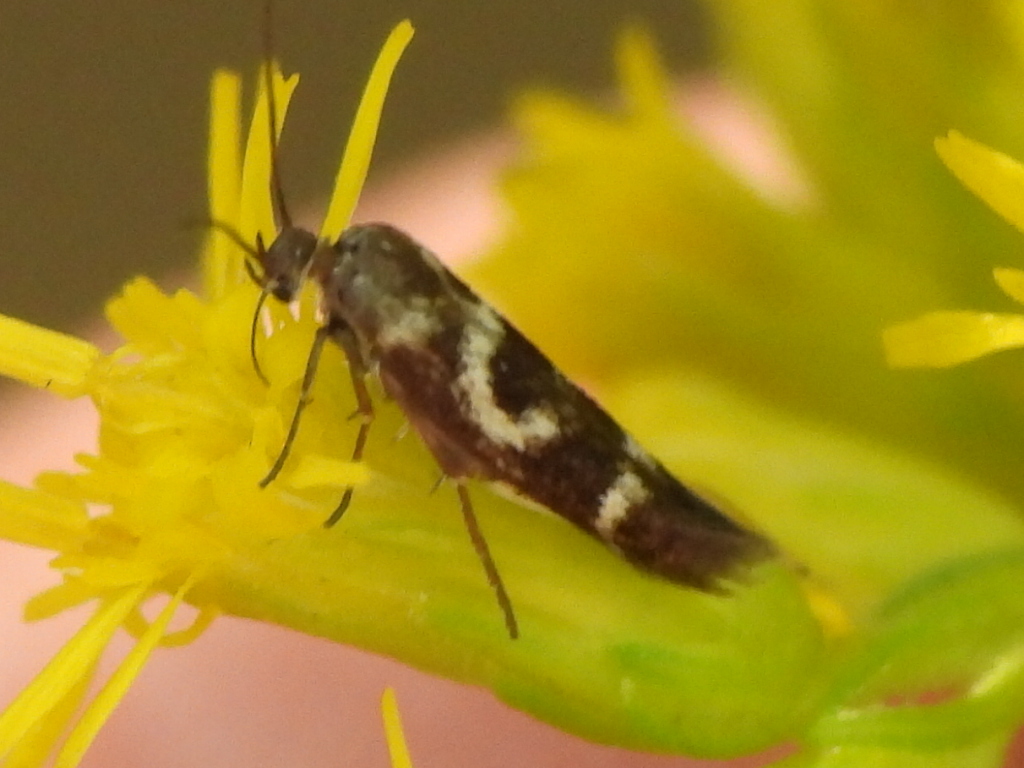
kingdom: Animalia
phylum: Arthropoda
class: Insecta
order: Lepidoptera
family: Scythrididae
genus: Scythris
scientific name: Scythris trivinctella
